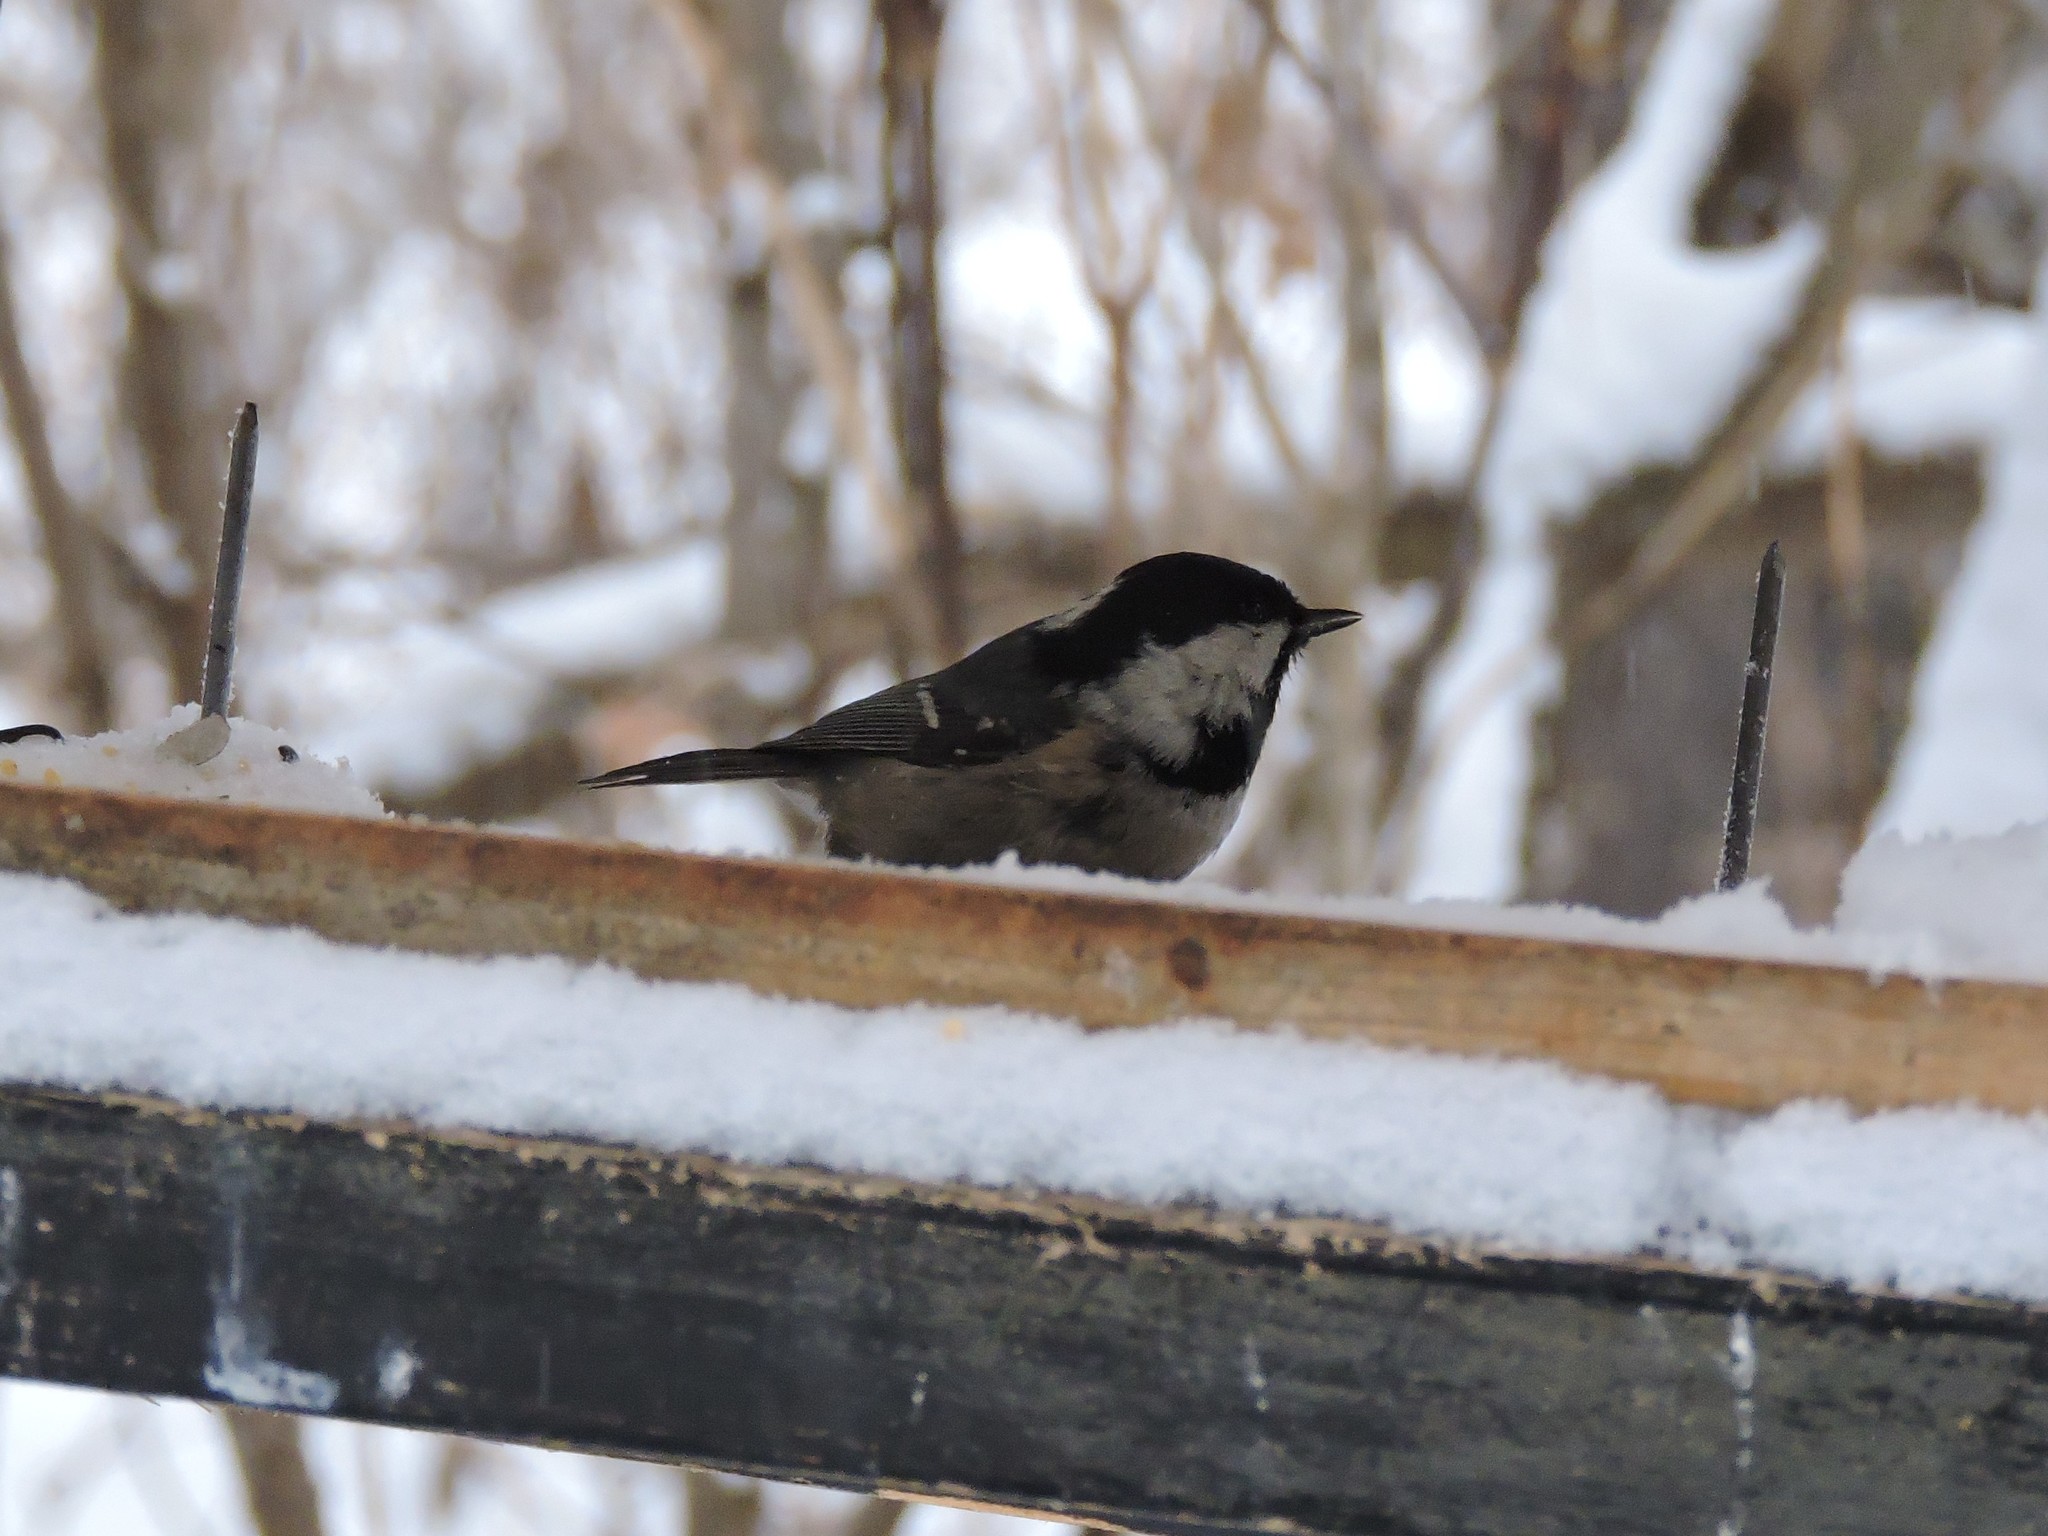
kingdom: Animalia
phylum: Chordata
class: Aves
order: Passeriformes
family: Paridae
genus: Periparus
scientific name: Periparus ater
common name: Coal tit
